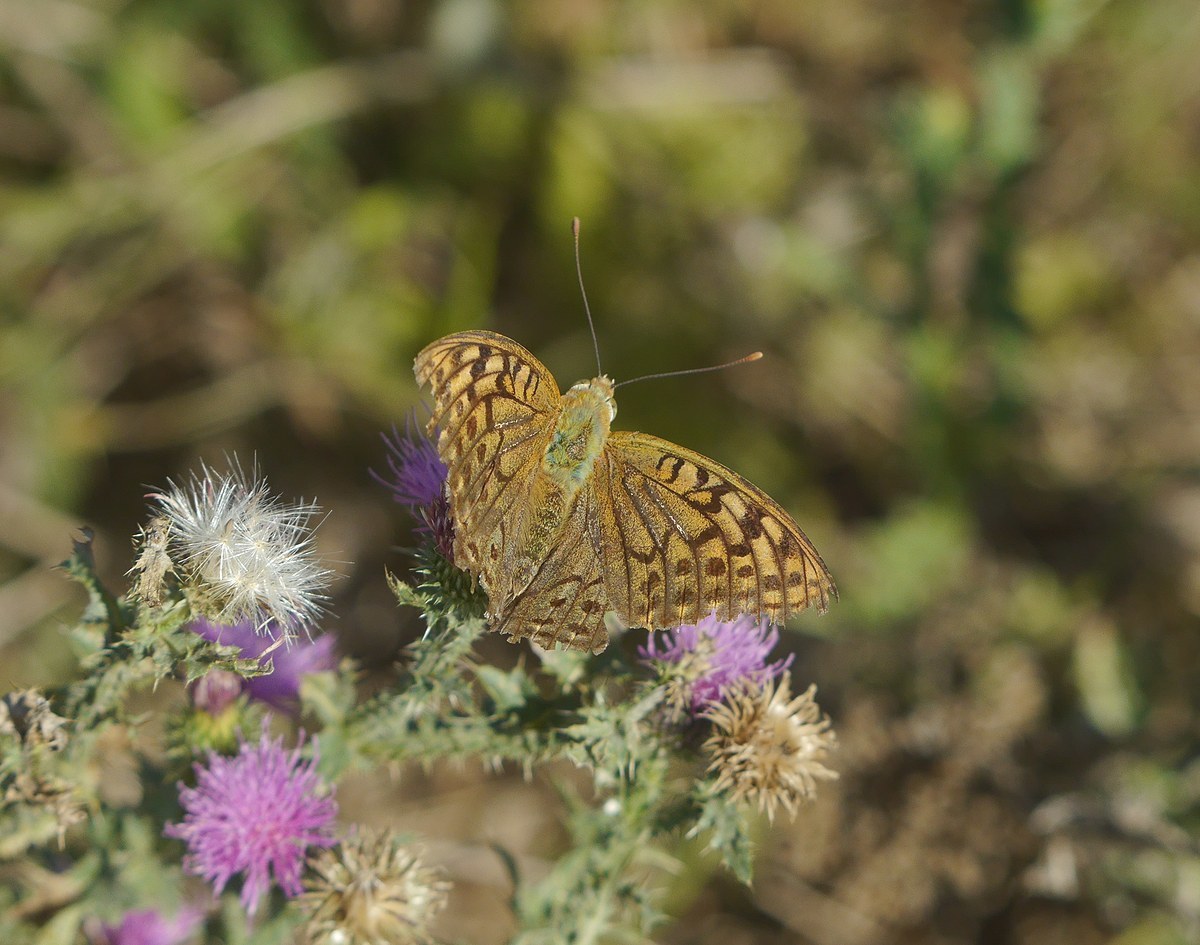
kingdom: Animalia
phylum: Arthropoda
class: Insecta
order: Lepidoptera
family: Nymphalidae
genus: Damora
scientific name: Damora pandora
